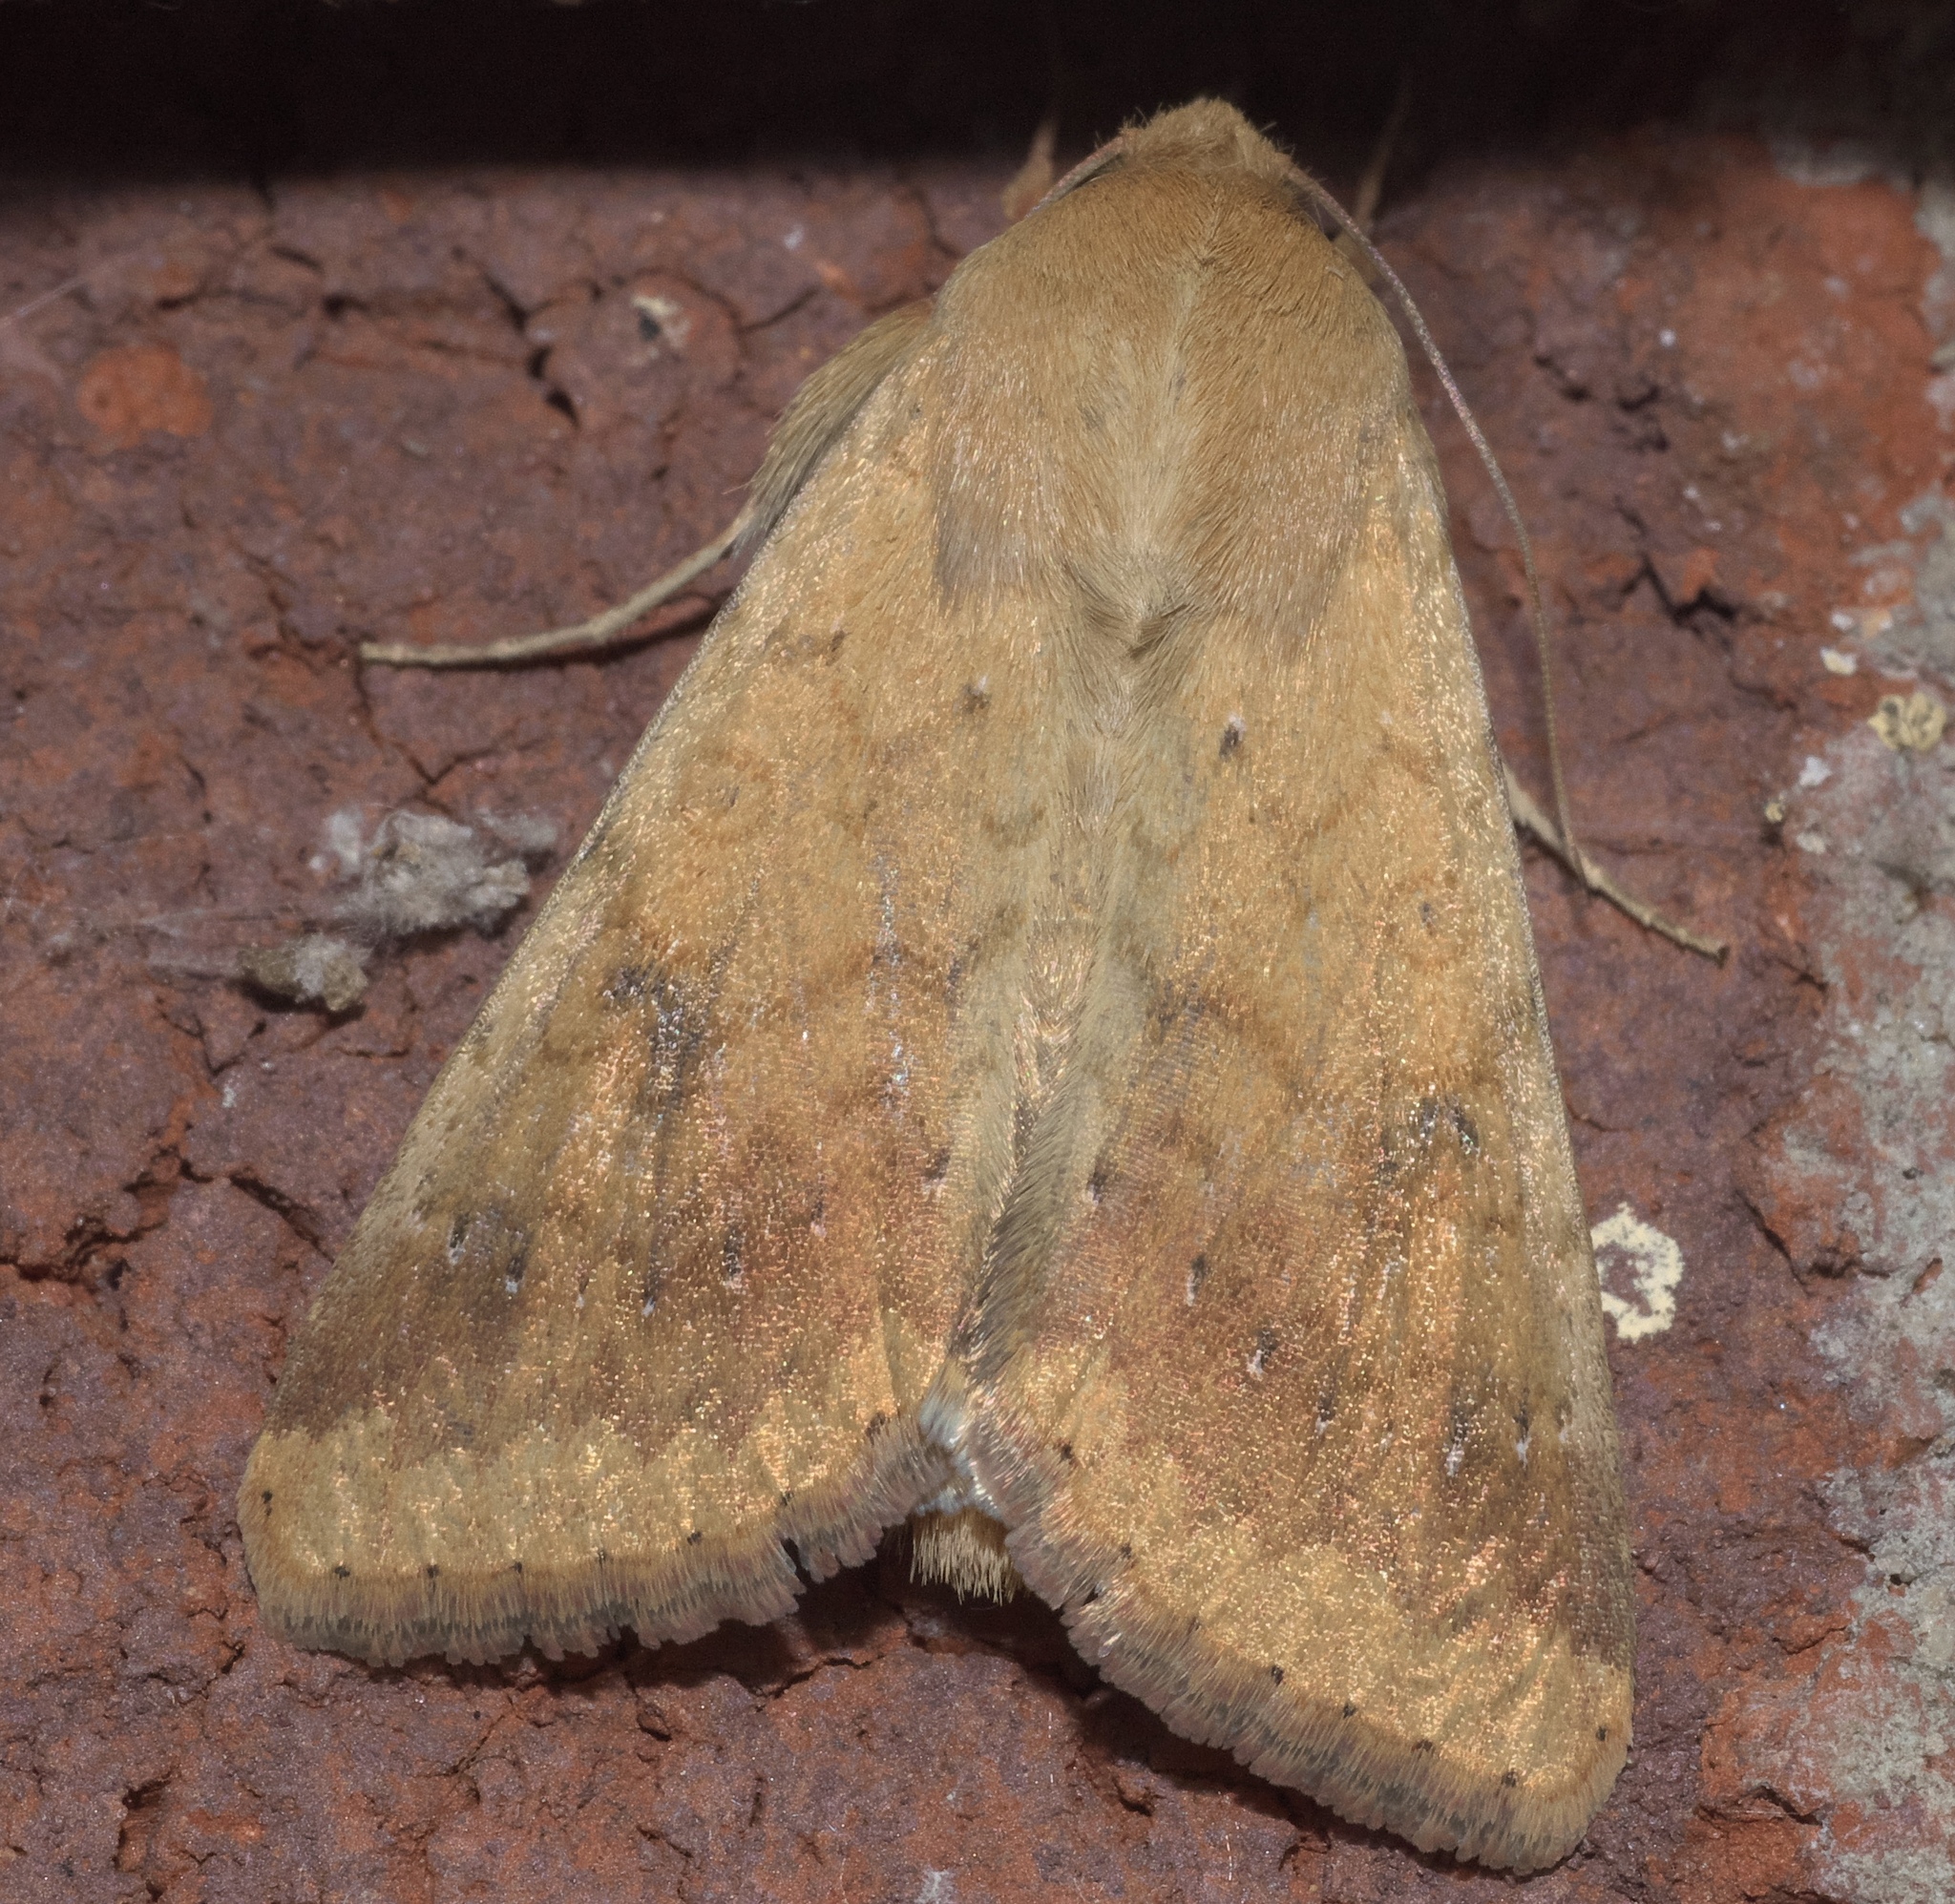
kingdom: Animalia
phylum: Arthropoda
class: Insecta
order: Lepidoptera
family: Noctuidae
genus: Helicoverpa
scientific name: Helicoverpa zea
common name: Bollworm
